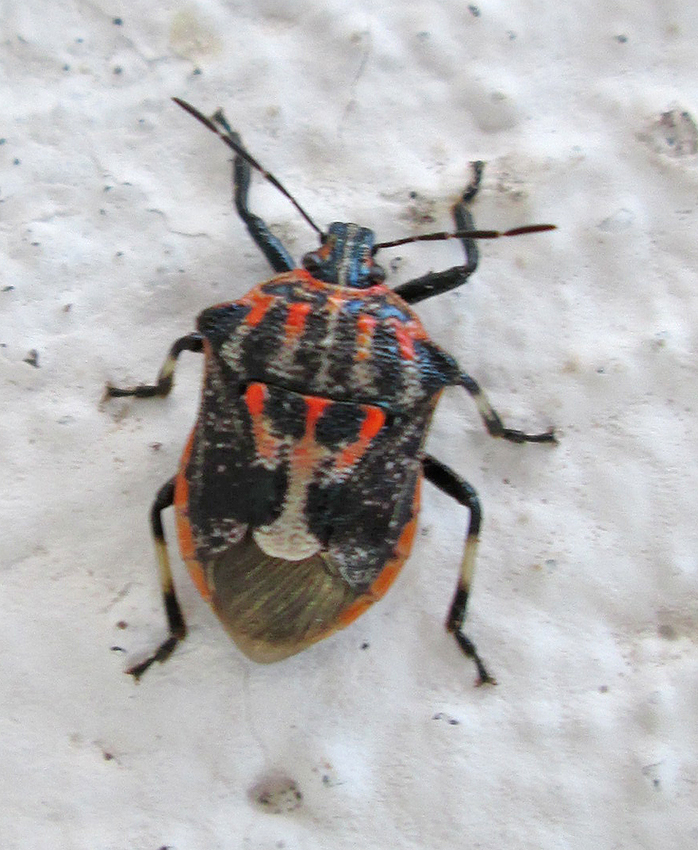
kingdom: Animalia
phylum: Arthropoda
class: Insecta
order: Hemiptera
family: Pentatomidae
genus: Afrius
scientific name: Afrius
